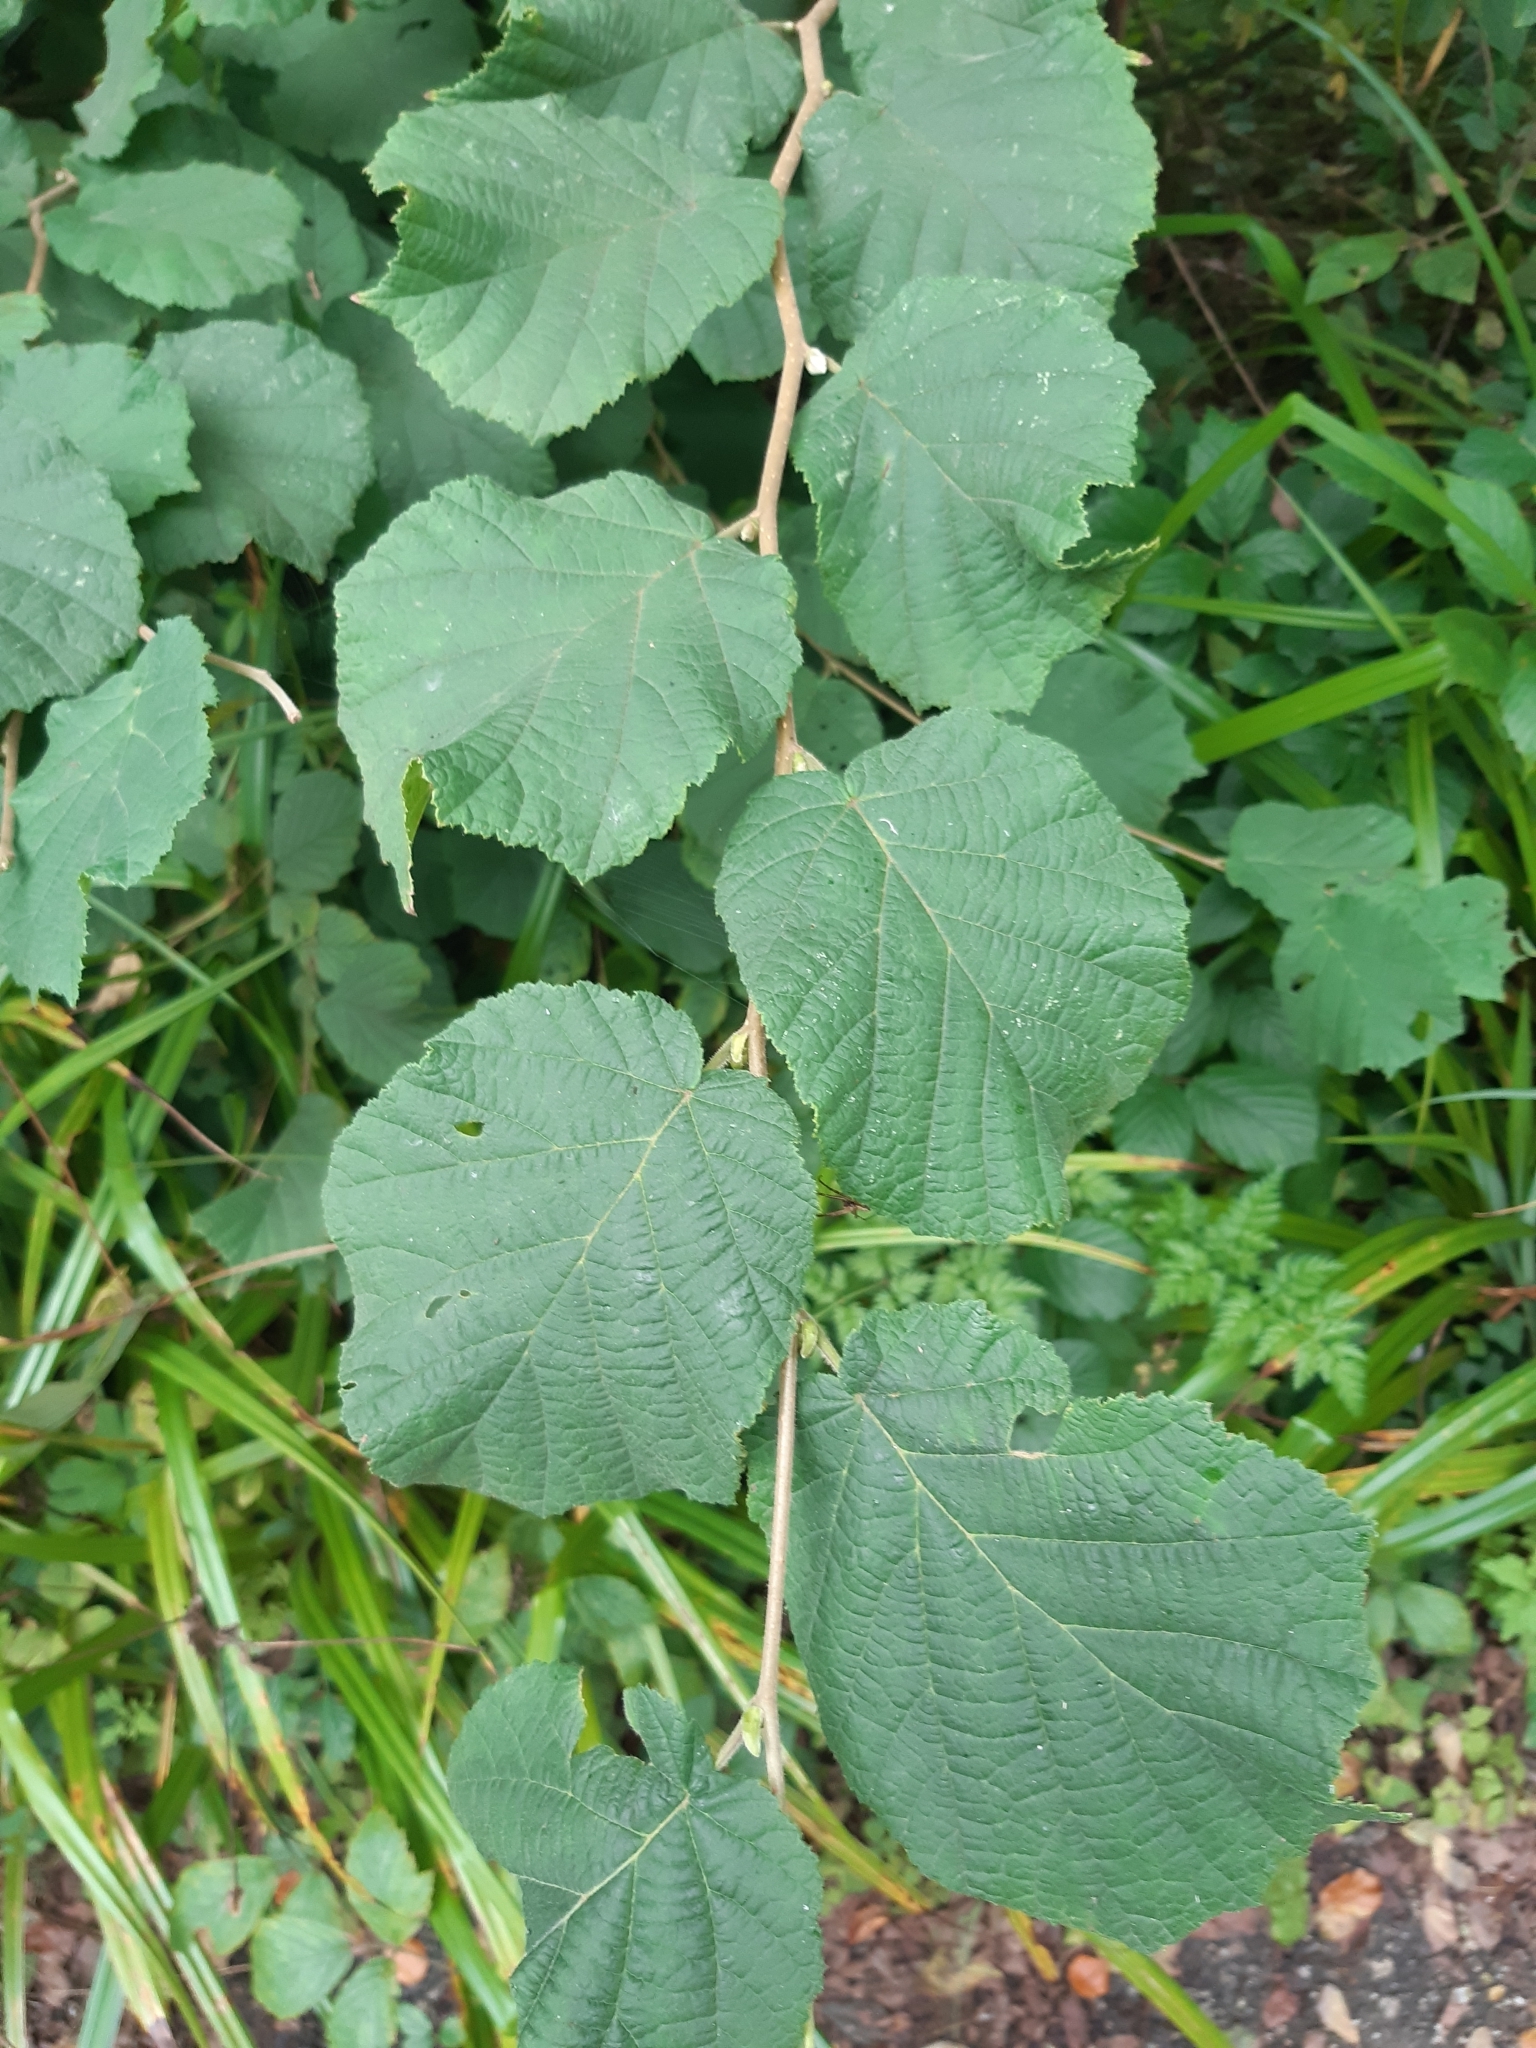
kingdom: Plantae
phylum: Tracheophyta
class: Magnoliopsida
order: Fagales
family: Betulaceae
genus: Corylus
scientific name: Corylus avellana
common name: European hazel
